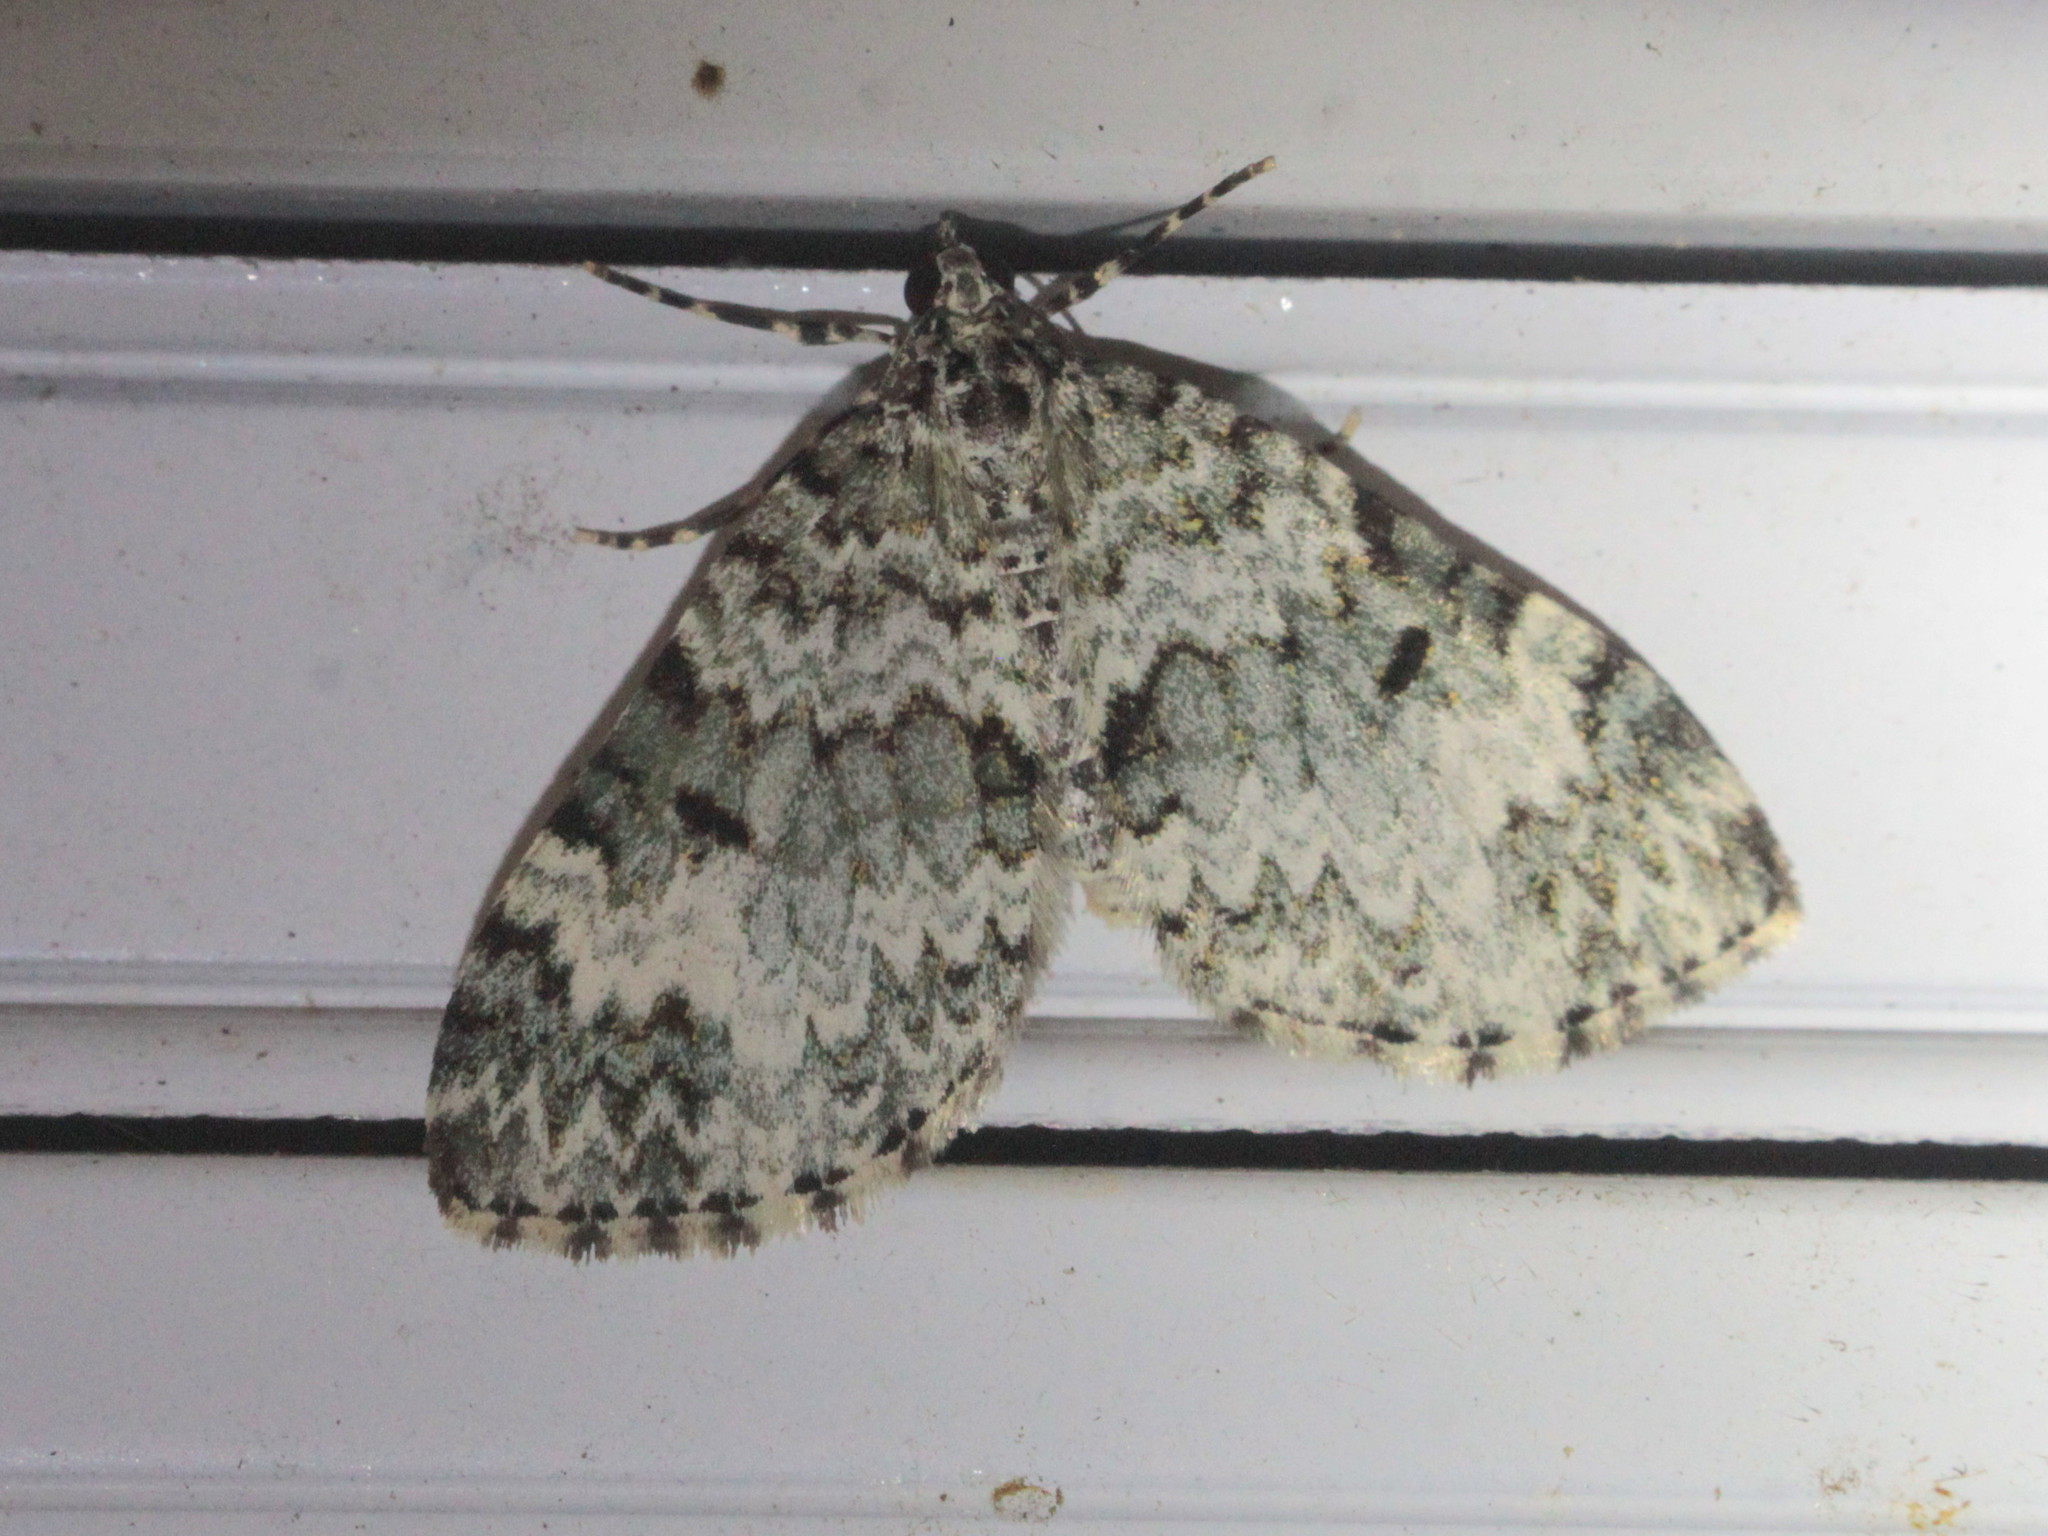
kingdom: Animalia
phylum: Arthropoda
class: Insecta
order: Lepidoptera
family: Geometridae
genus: Spargania
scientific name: Spargania magnoliata
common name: Double-banded carpet
